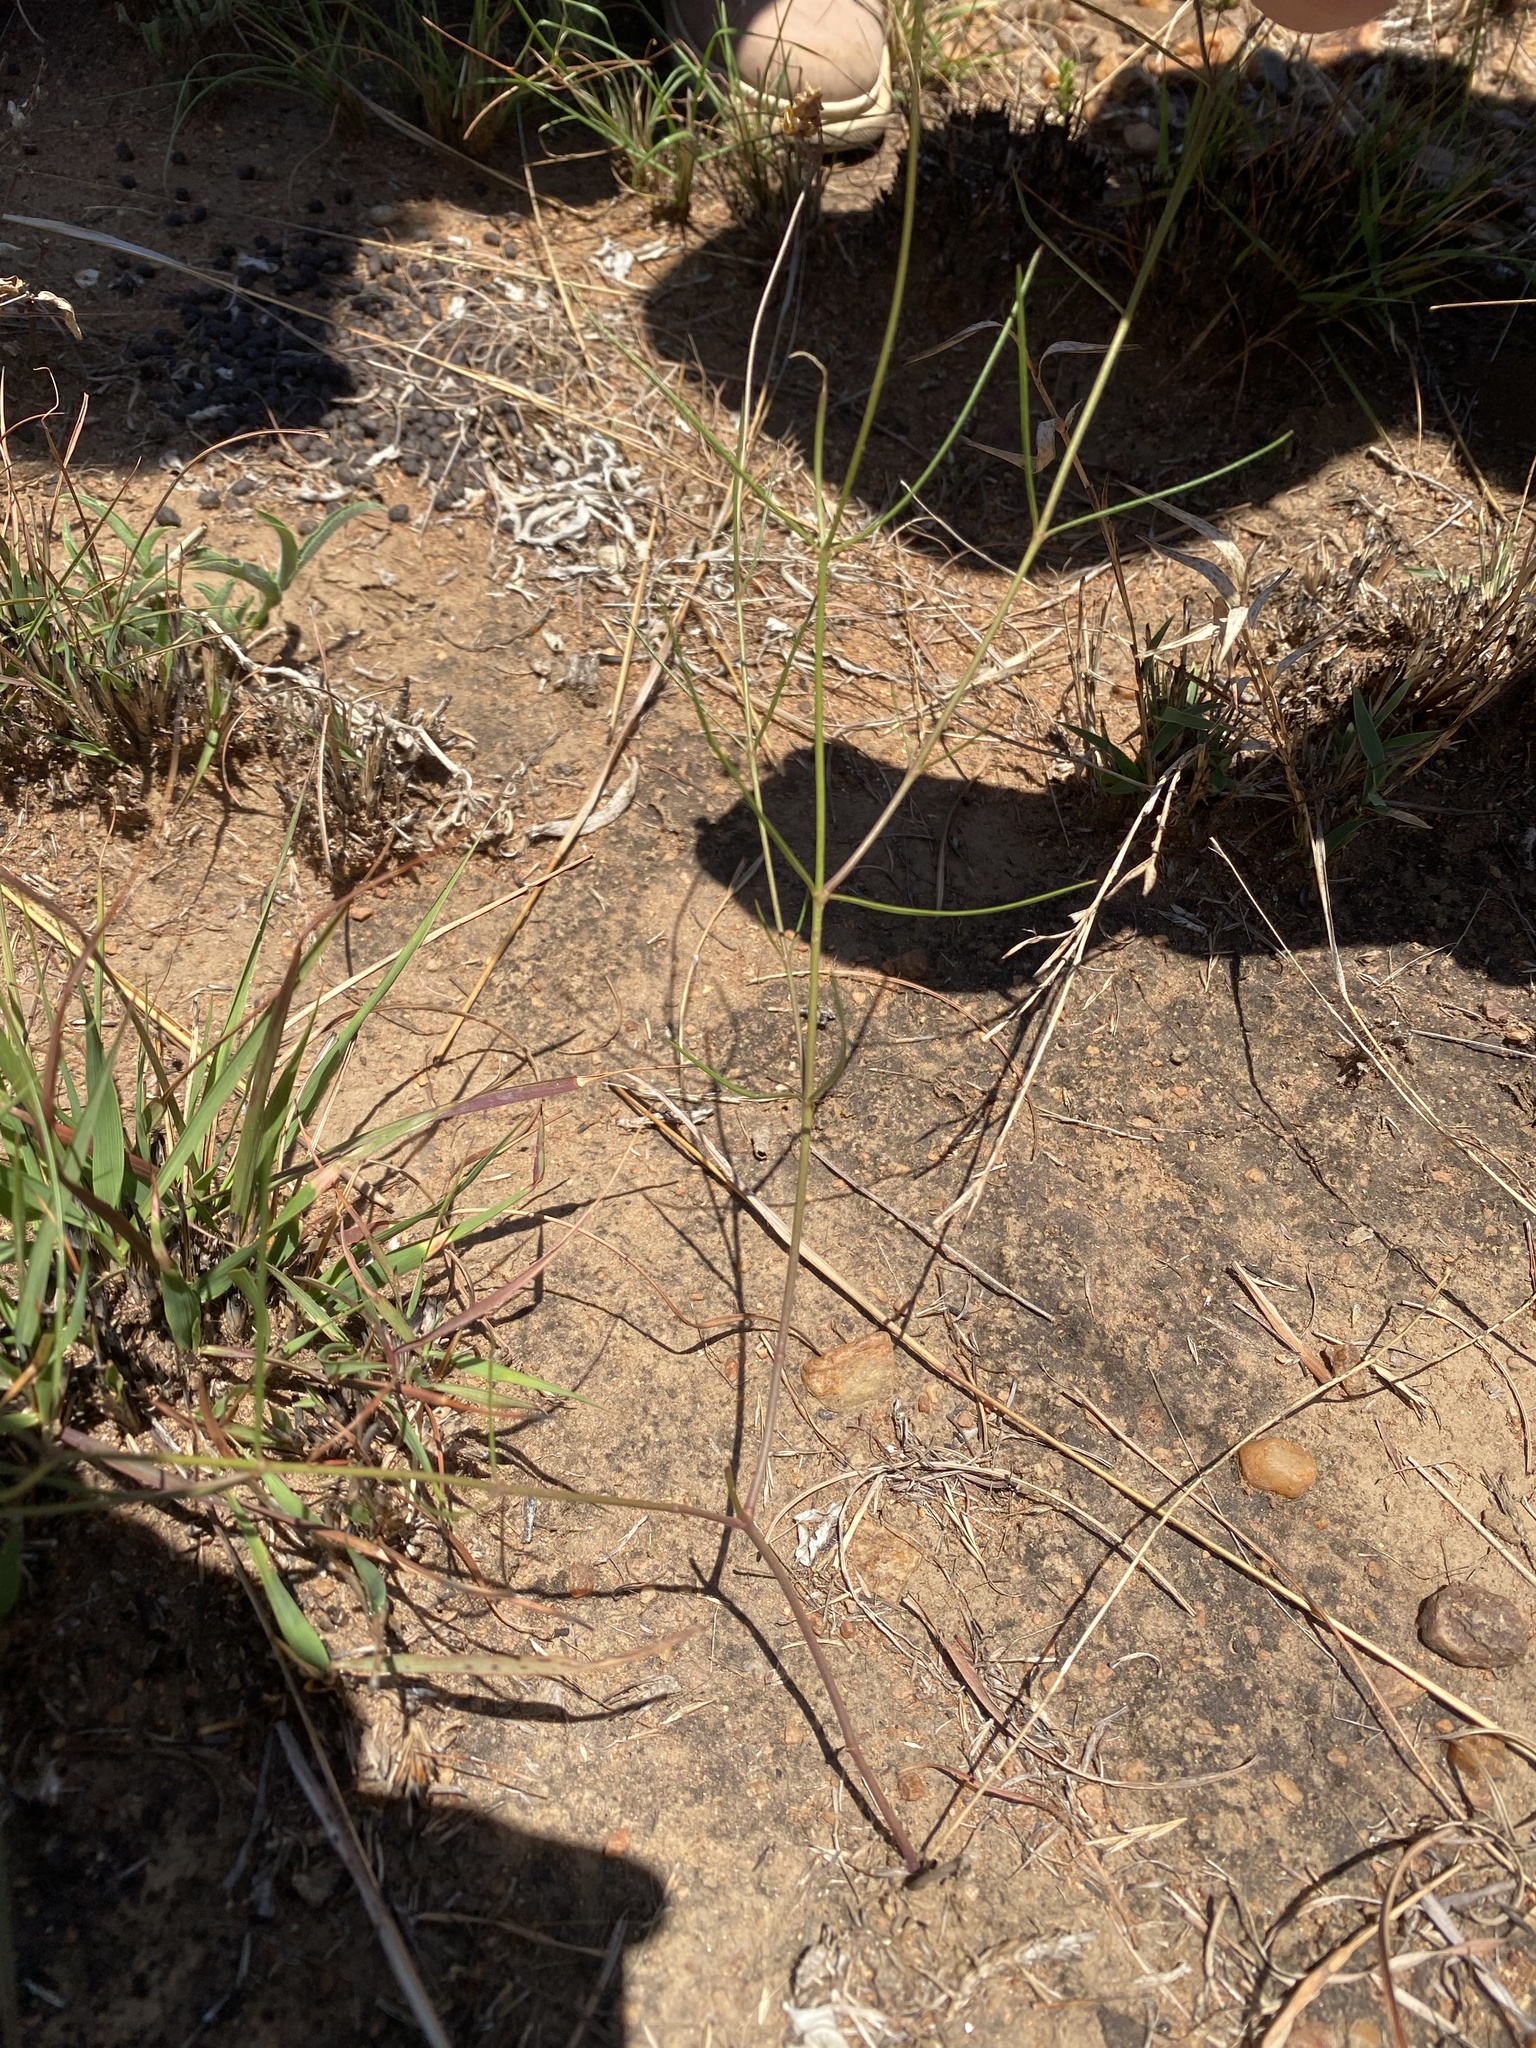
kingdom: Plantae
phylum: Tracheophyta
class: Magnoliopsida
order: Gentianales
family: Apocynaceae
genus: Asclepias
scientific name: Asclepias aurea
